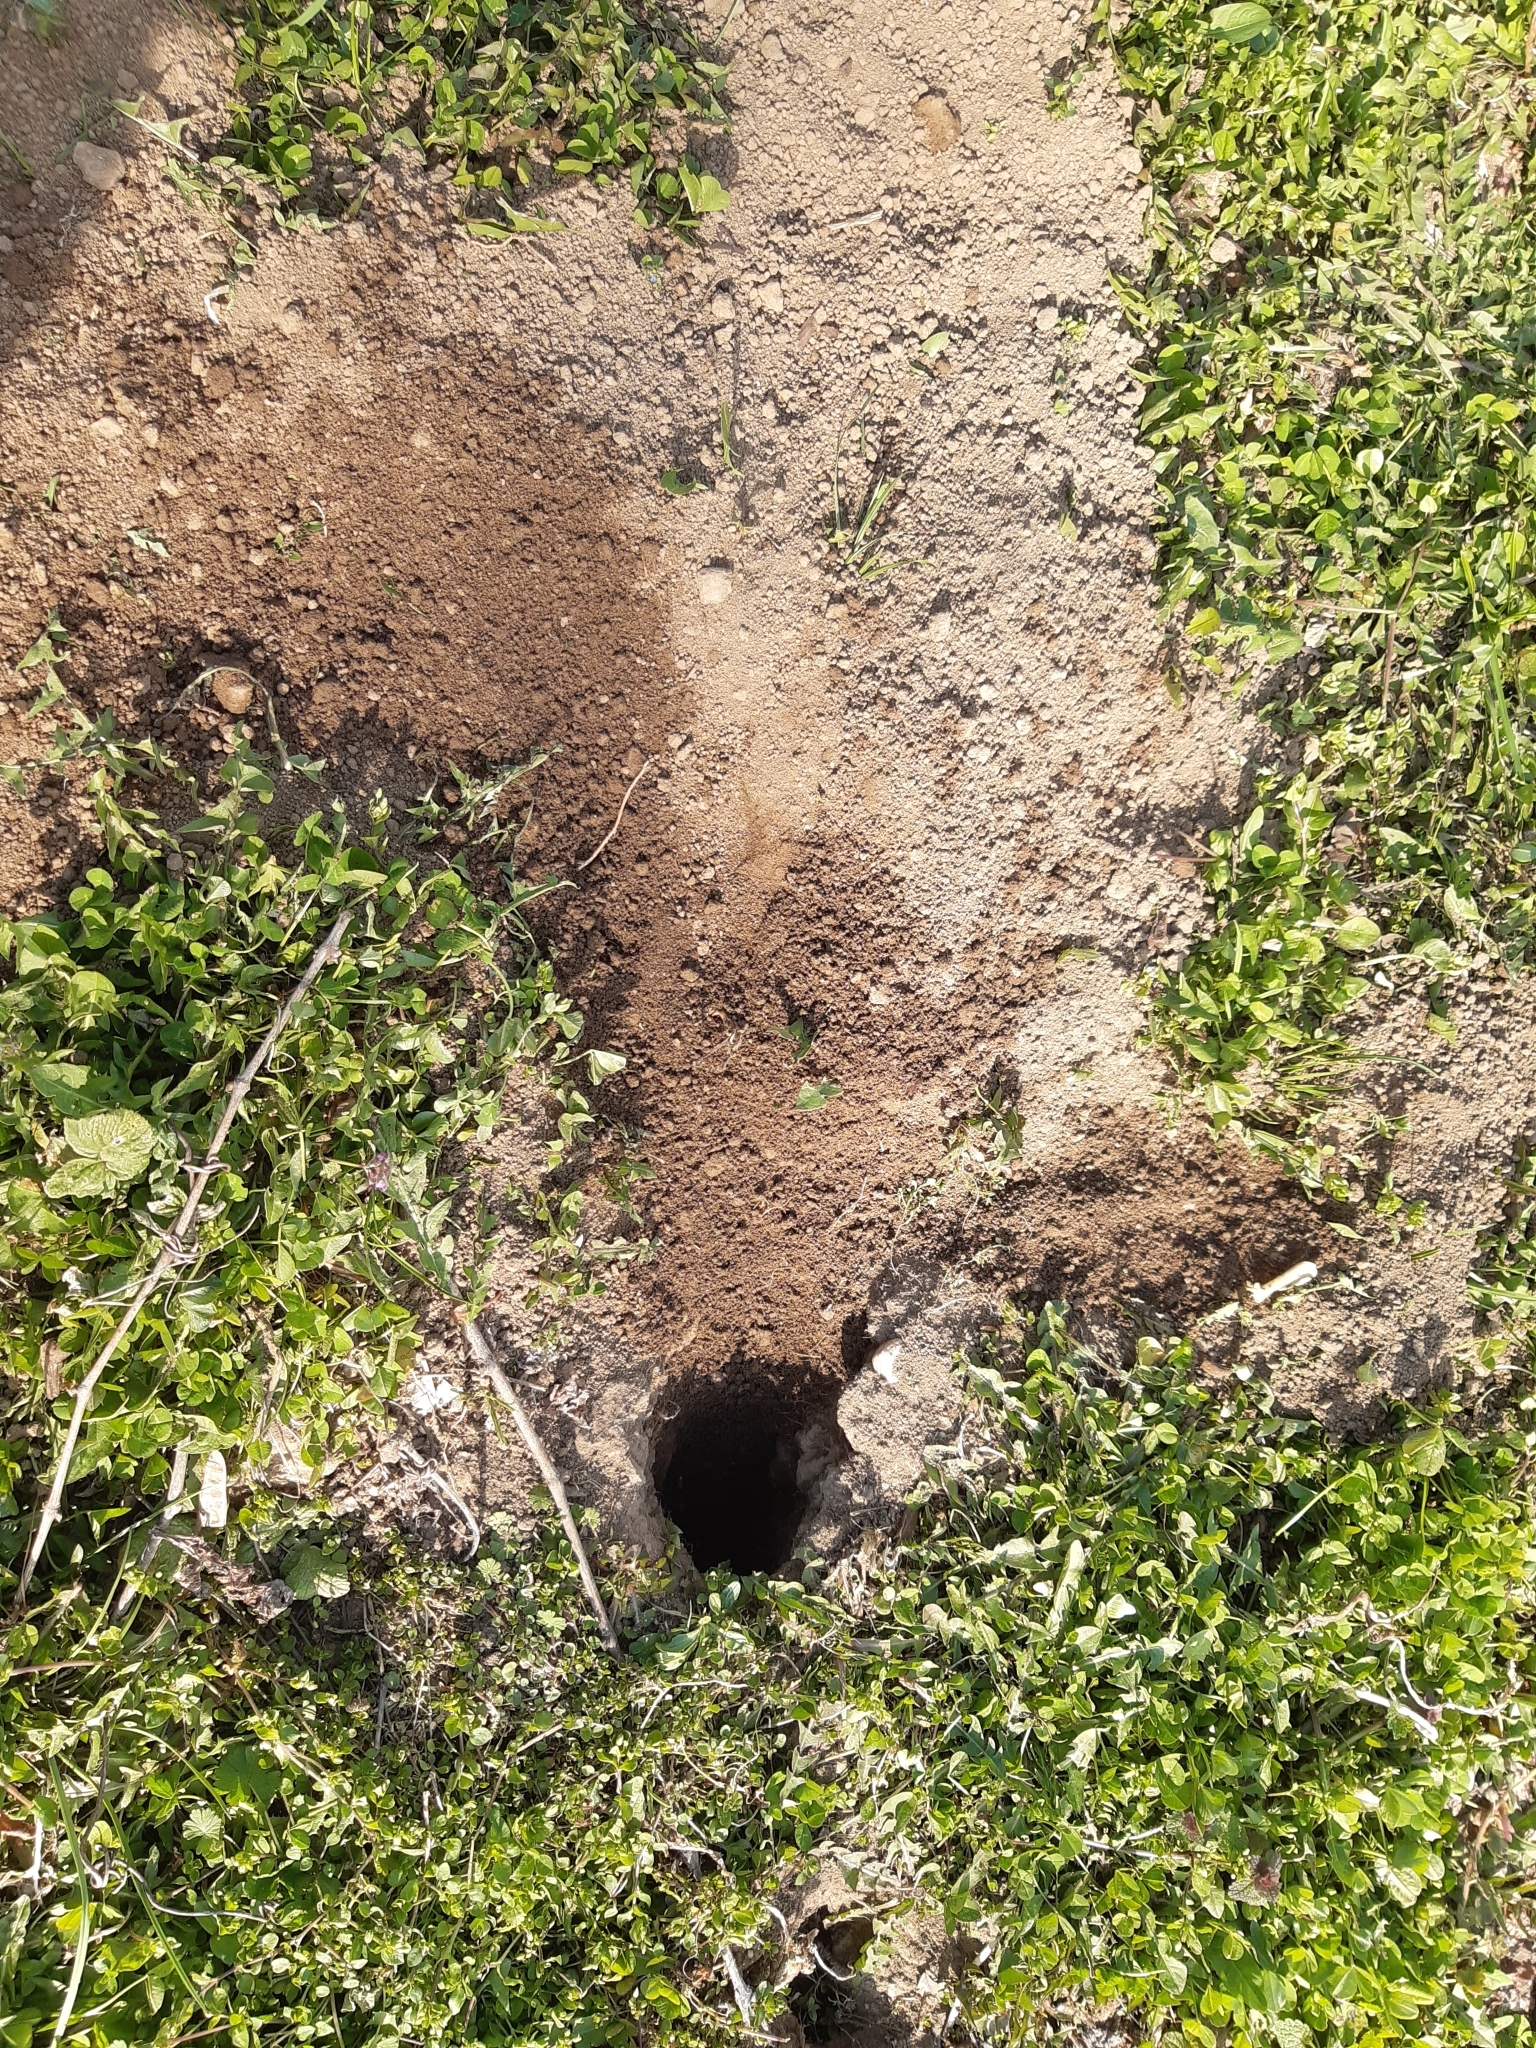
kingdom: Animalia
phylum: Chordata
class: Mammalia
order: Rodentia
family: Sciuridae
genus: Spermophilus
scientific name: Spermophilus citellus
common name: European ground squirrel
